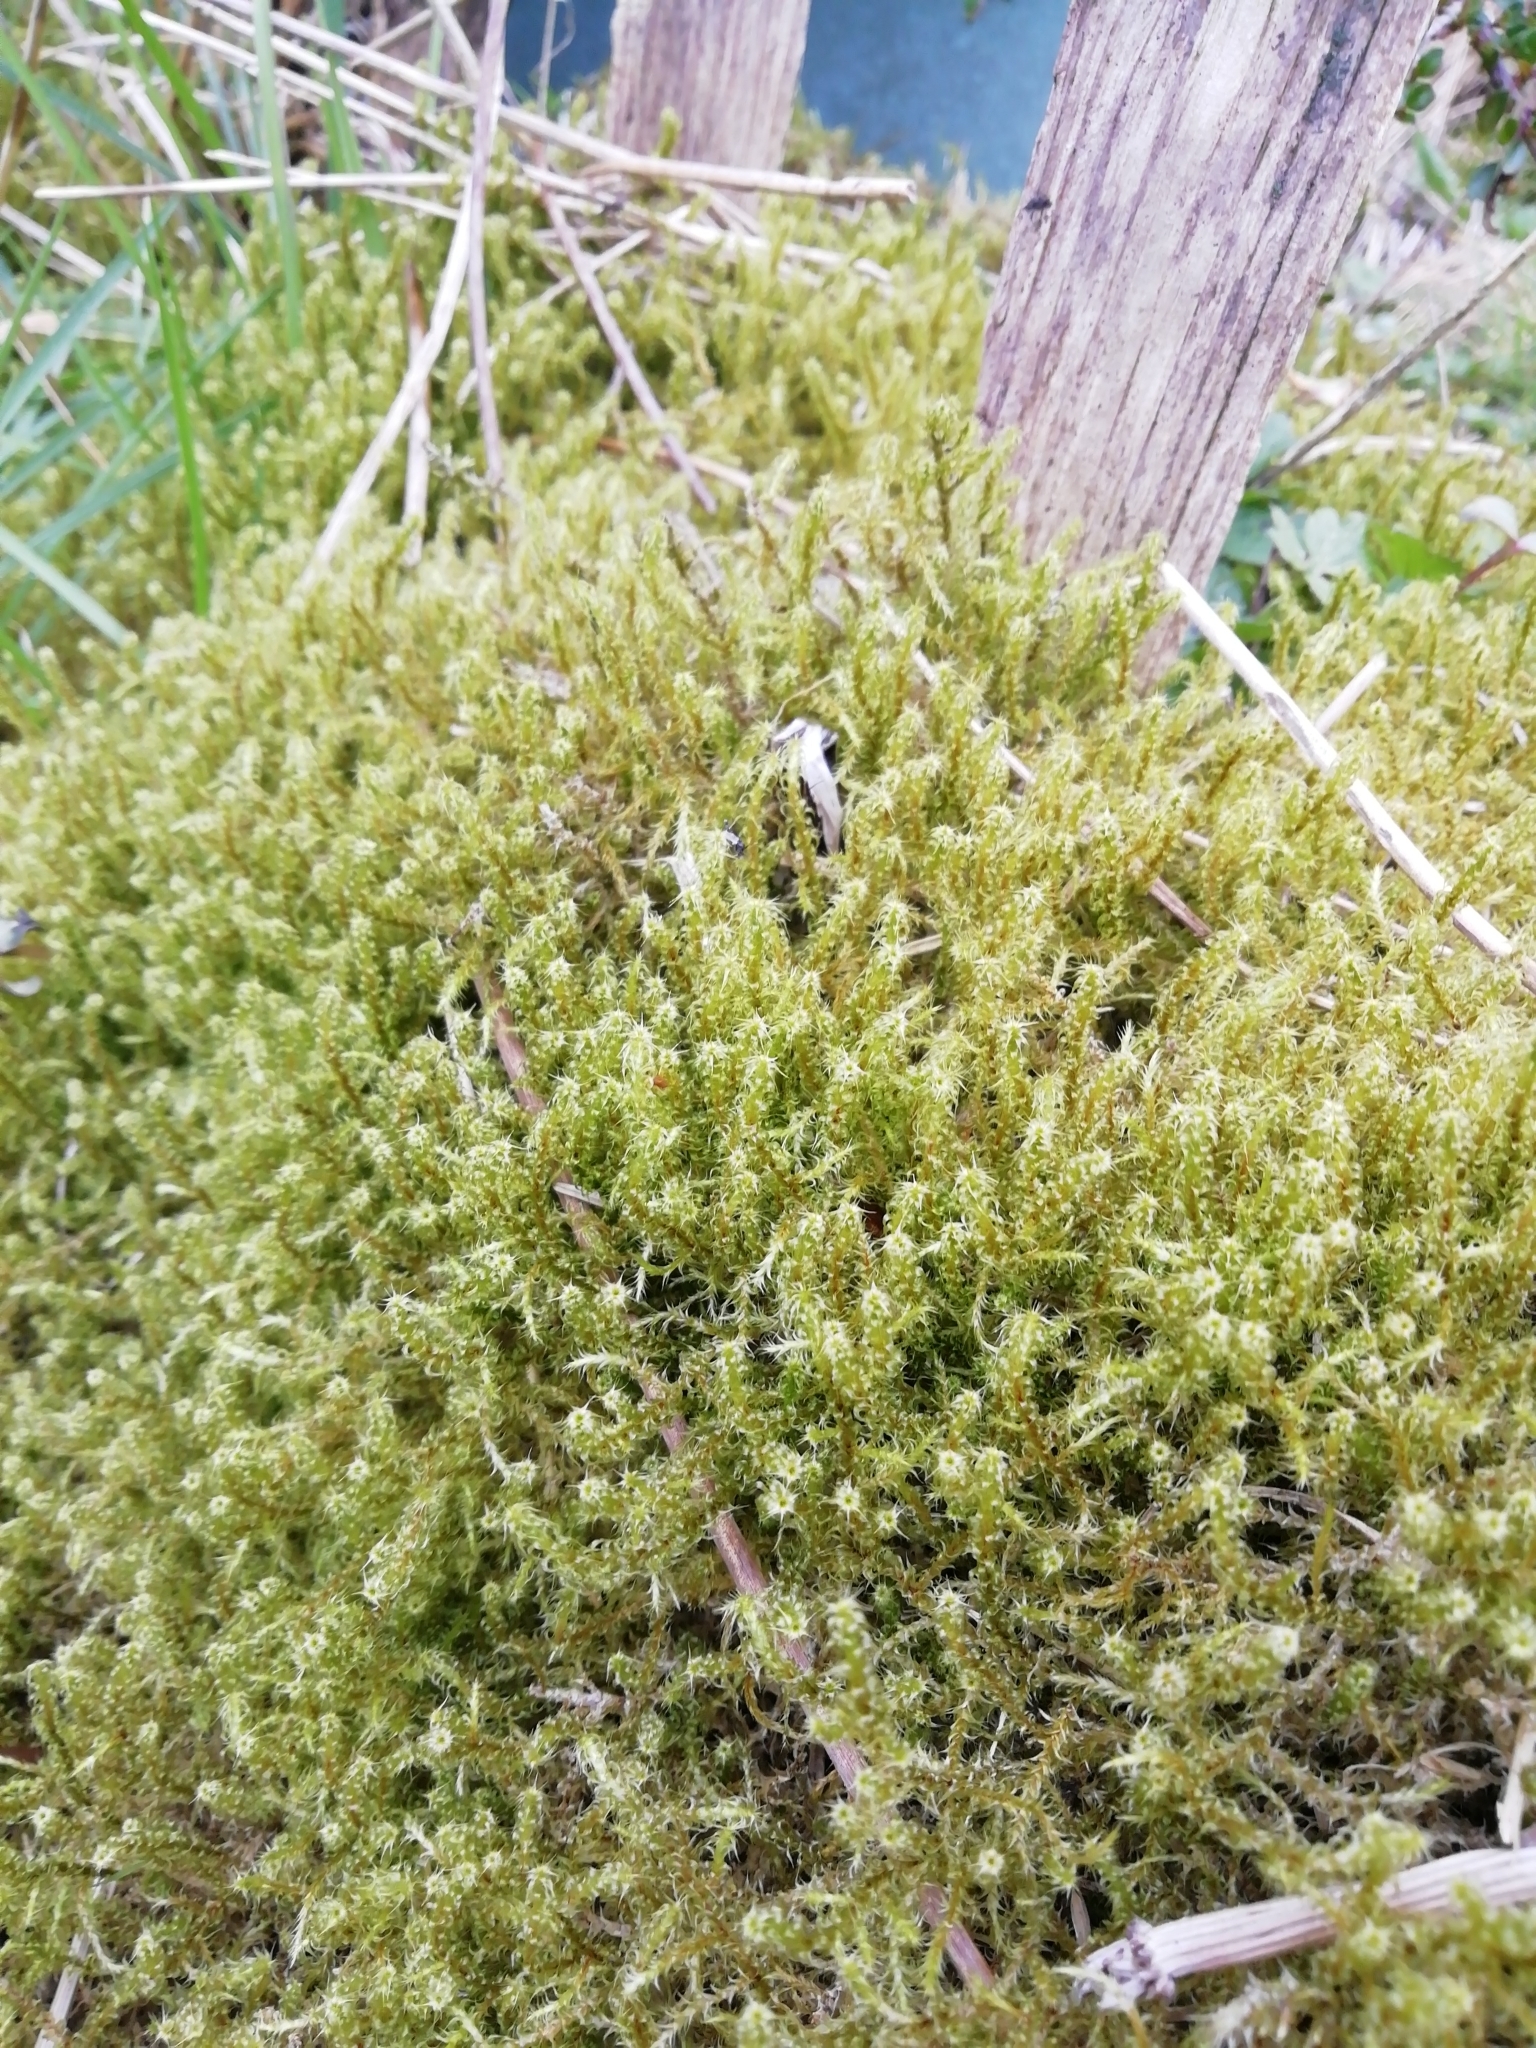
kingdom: Plantae
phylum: Bryophyta
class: Bryopsida
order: Hypnales
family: Hylocomiaceae
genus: Rhytidiadelphus
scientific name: Rhytidiadelphus squarrosus
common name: Springy turf-moss
